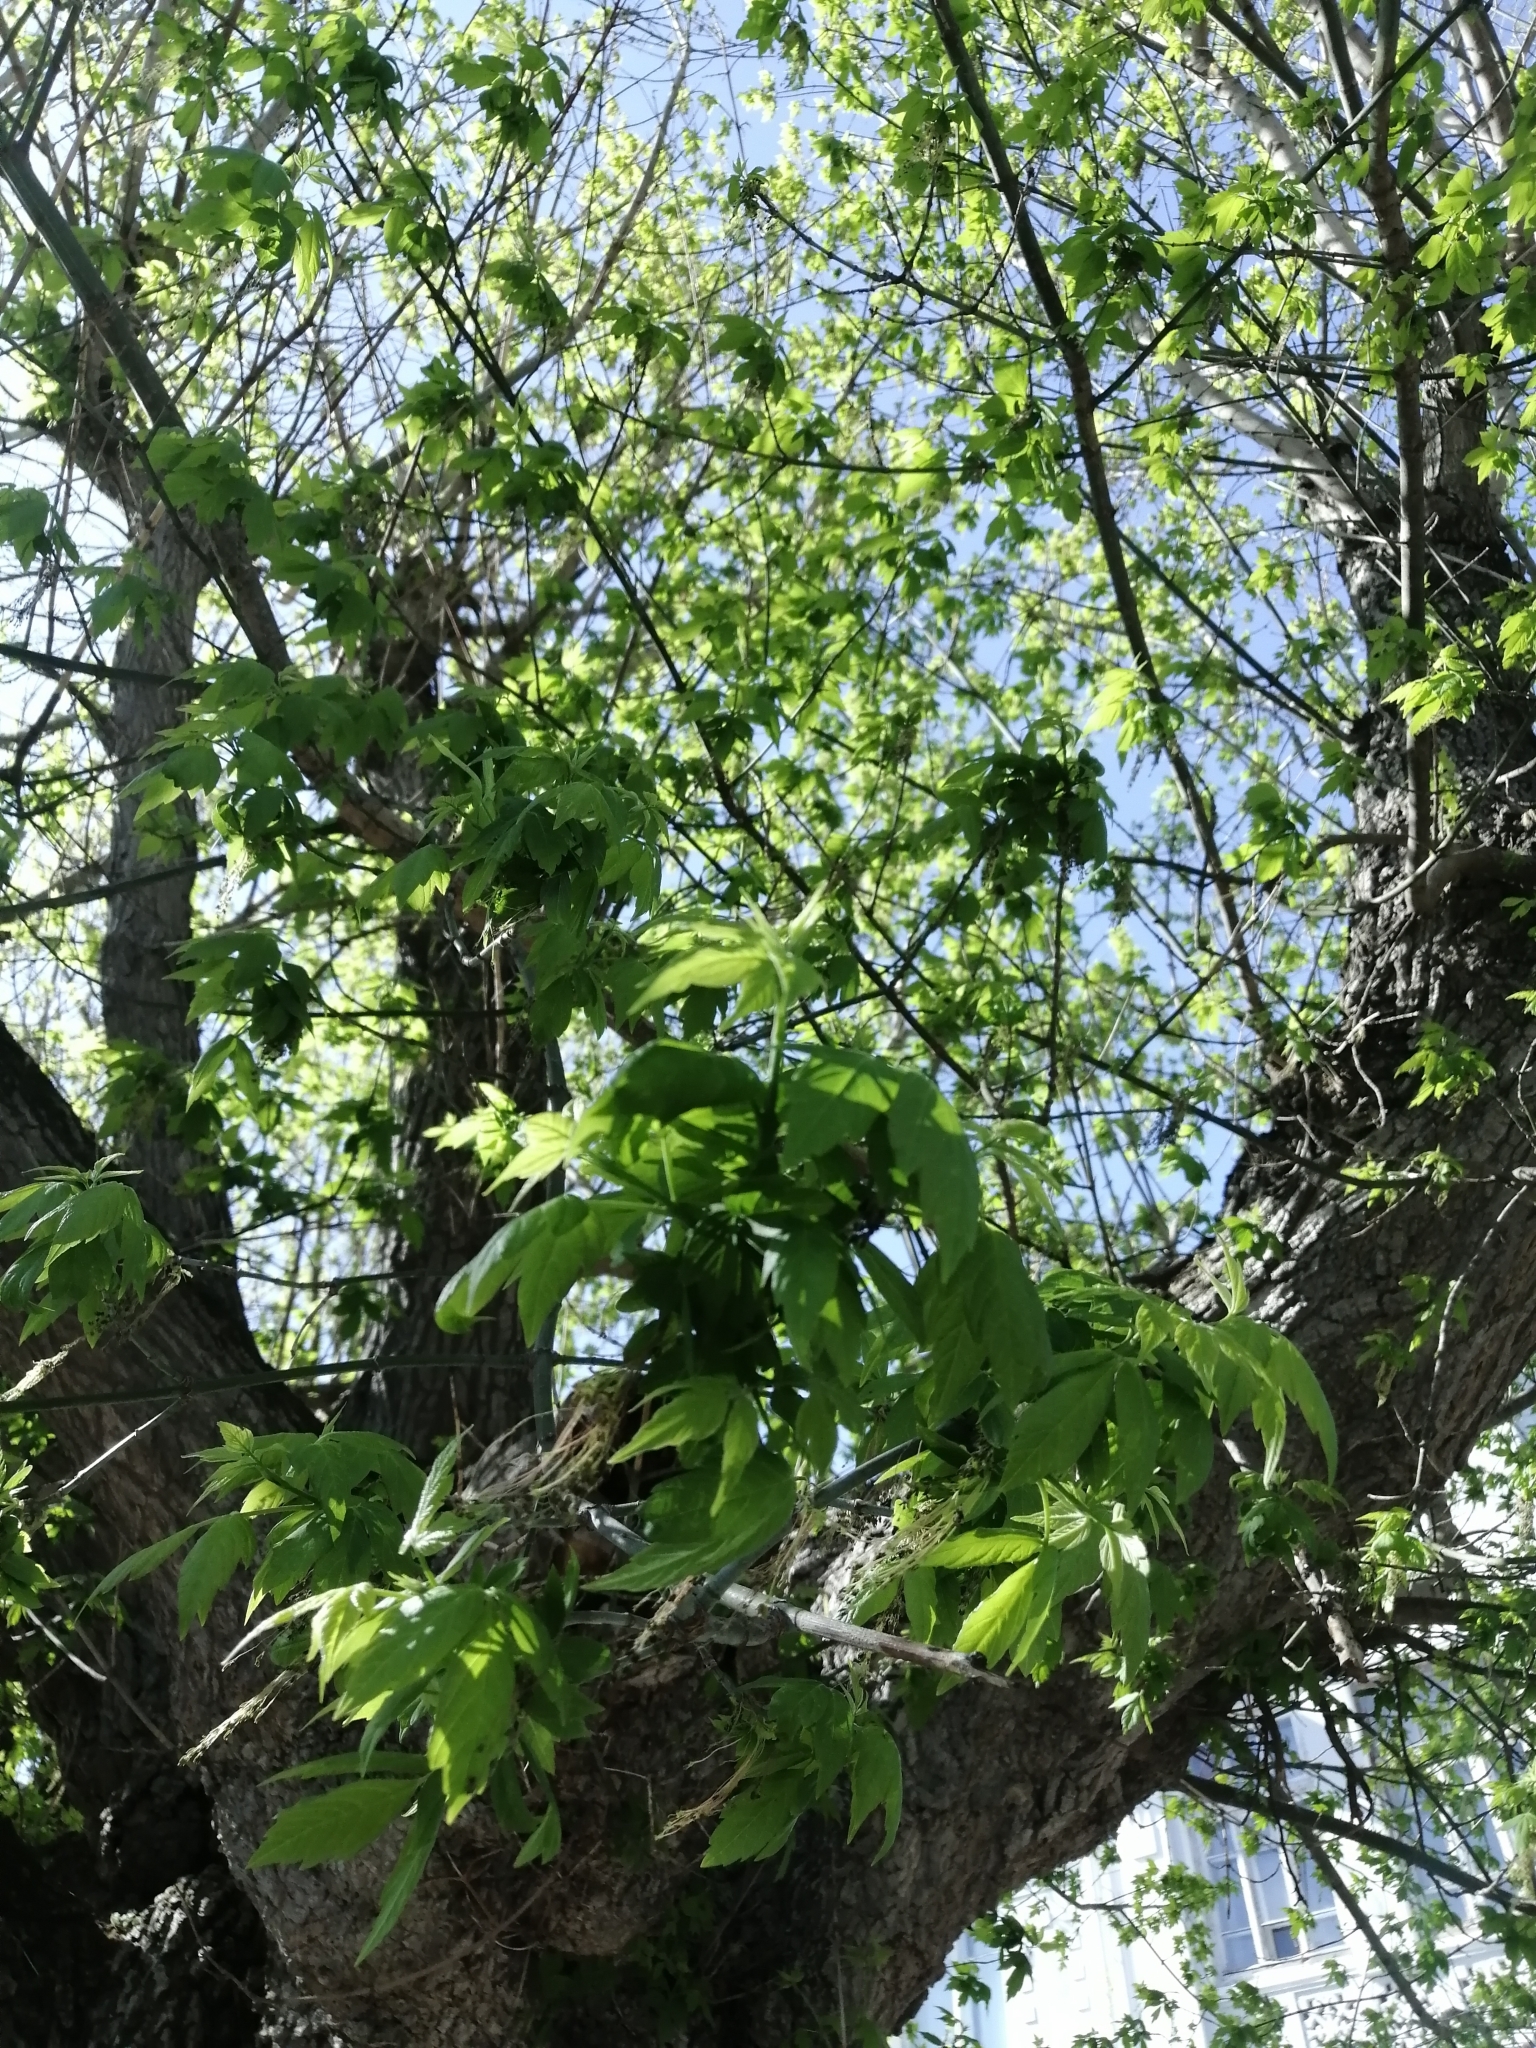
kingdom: Plantae
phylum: Tracheophyta
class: Magnoliopsida
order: Sapindales
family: Sapindaceae
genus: Acer
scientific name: Acer negundo
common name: Ashleaf maple
